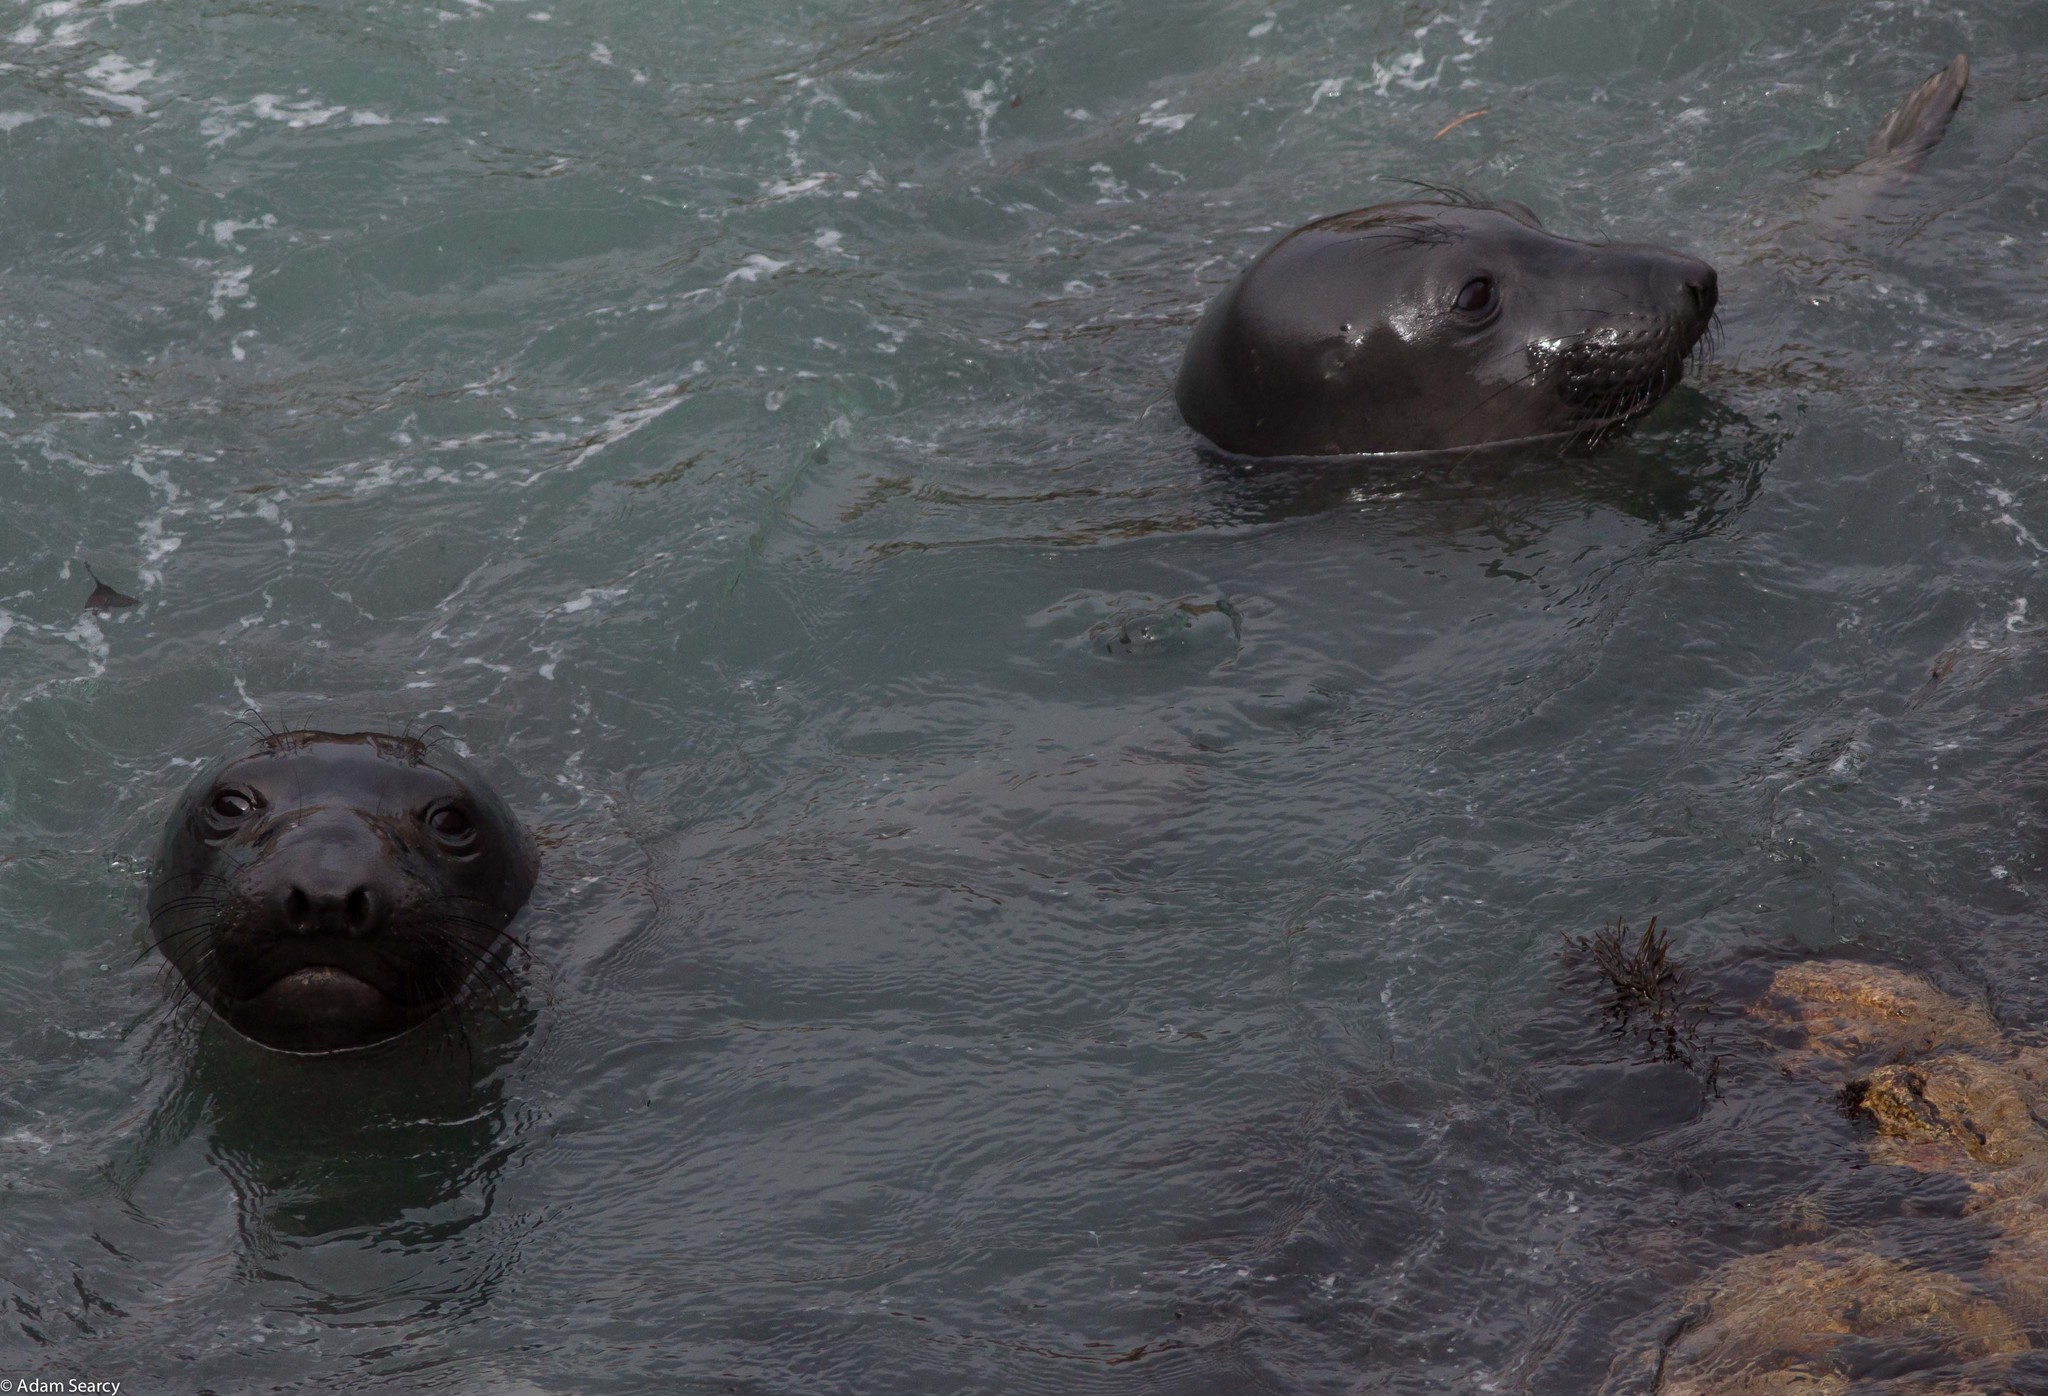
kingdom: Animalia
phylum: Chordata
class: Mammalia
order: Carnivora
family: Phocidae
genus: Mirounga
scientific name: Mirounga angustirostris
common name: Northern elephant seal
